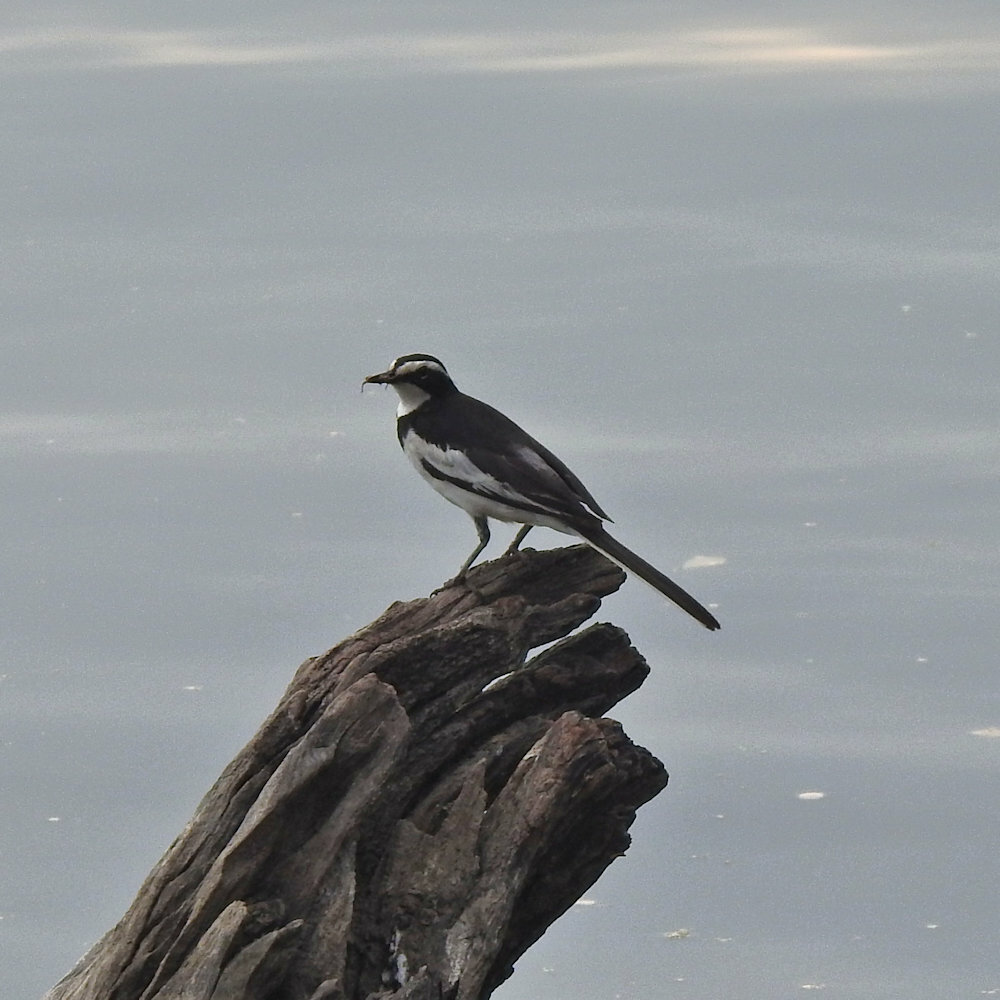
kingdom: Animalia
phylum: Chordata
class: Aves
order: Passeriformes
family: Motacillidae
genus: Motacilla
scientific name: Motacilla aguimp
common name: African pied wagtail
